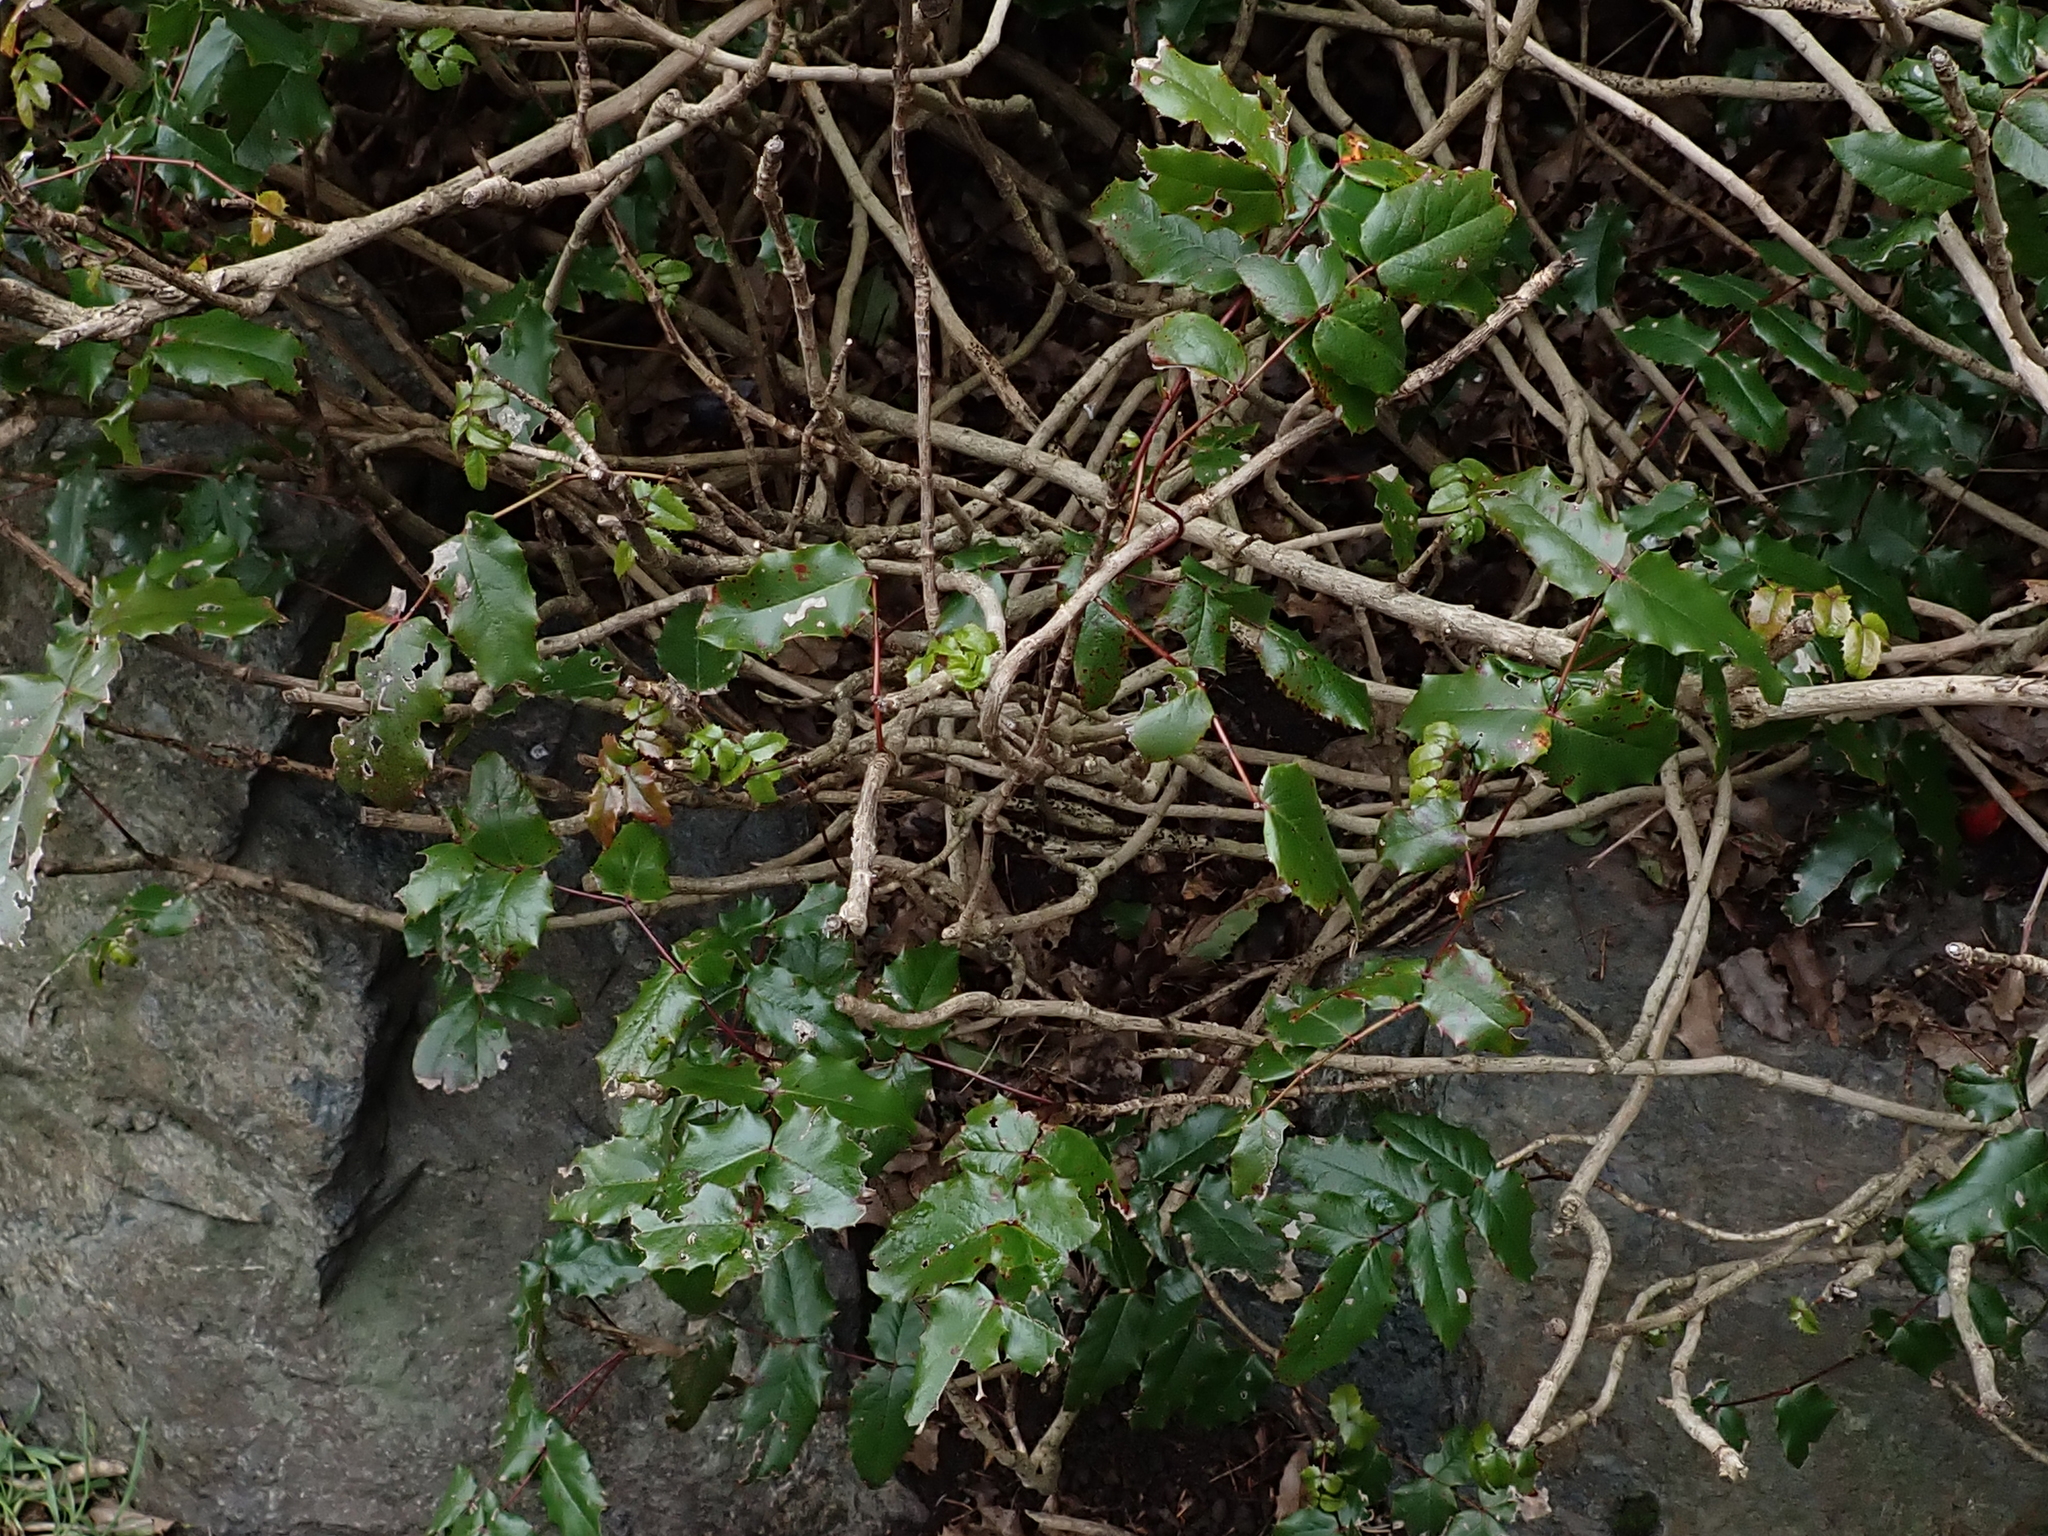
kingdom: Plantae
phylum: Tracheophyta
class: Magnoliopsida
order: Ranunculales
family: Berberidaceae
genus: Mahonia
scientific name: Mahonia aquifolium
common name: Oregon-grape
